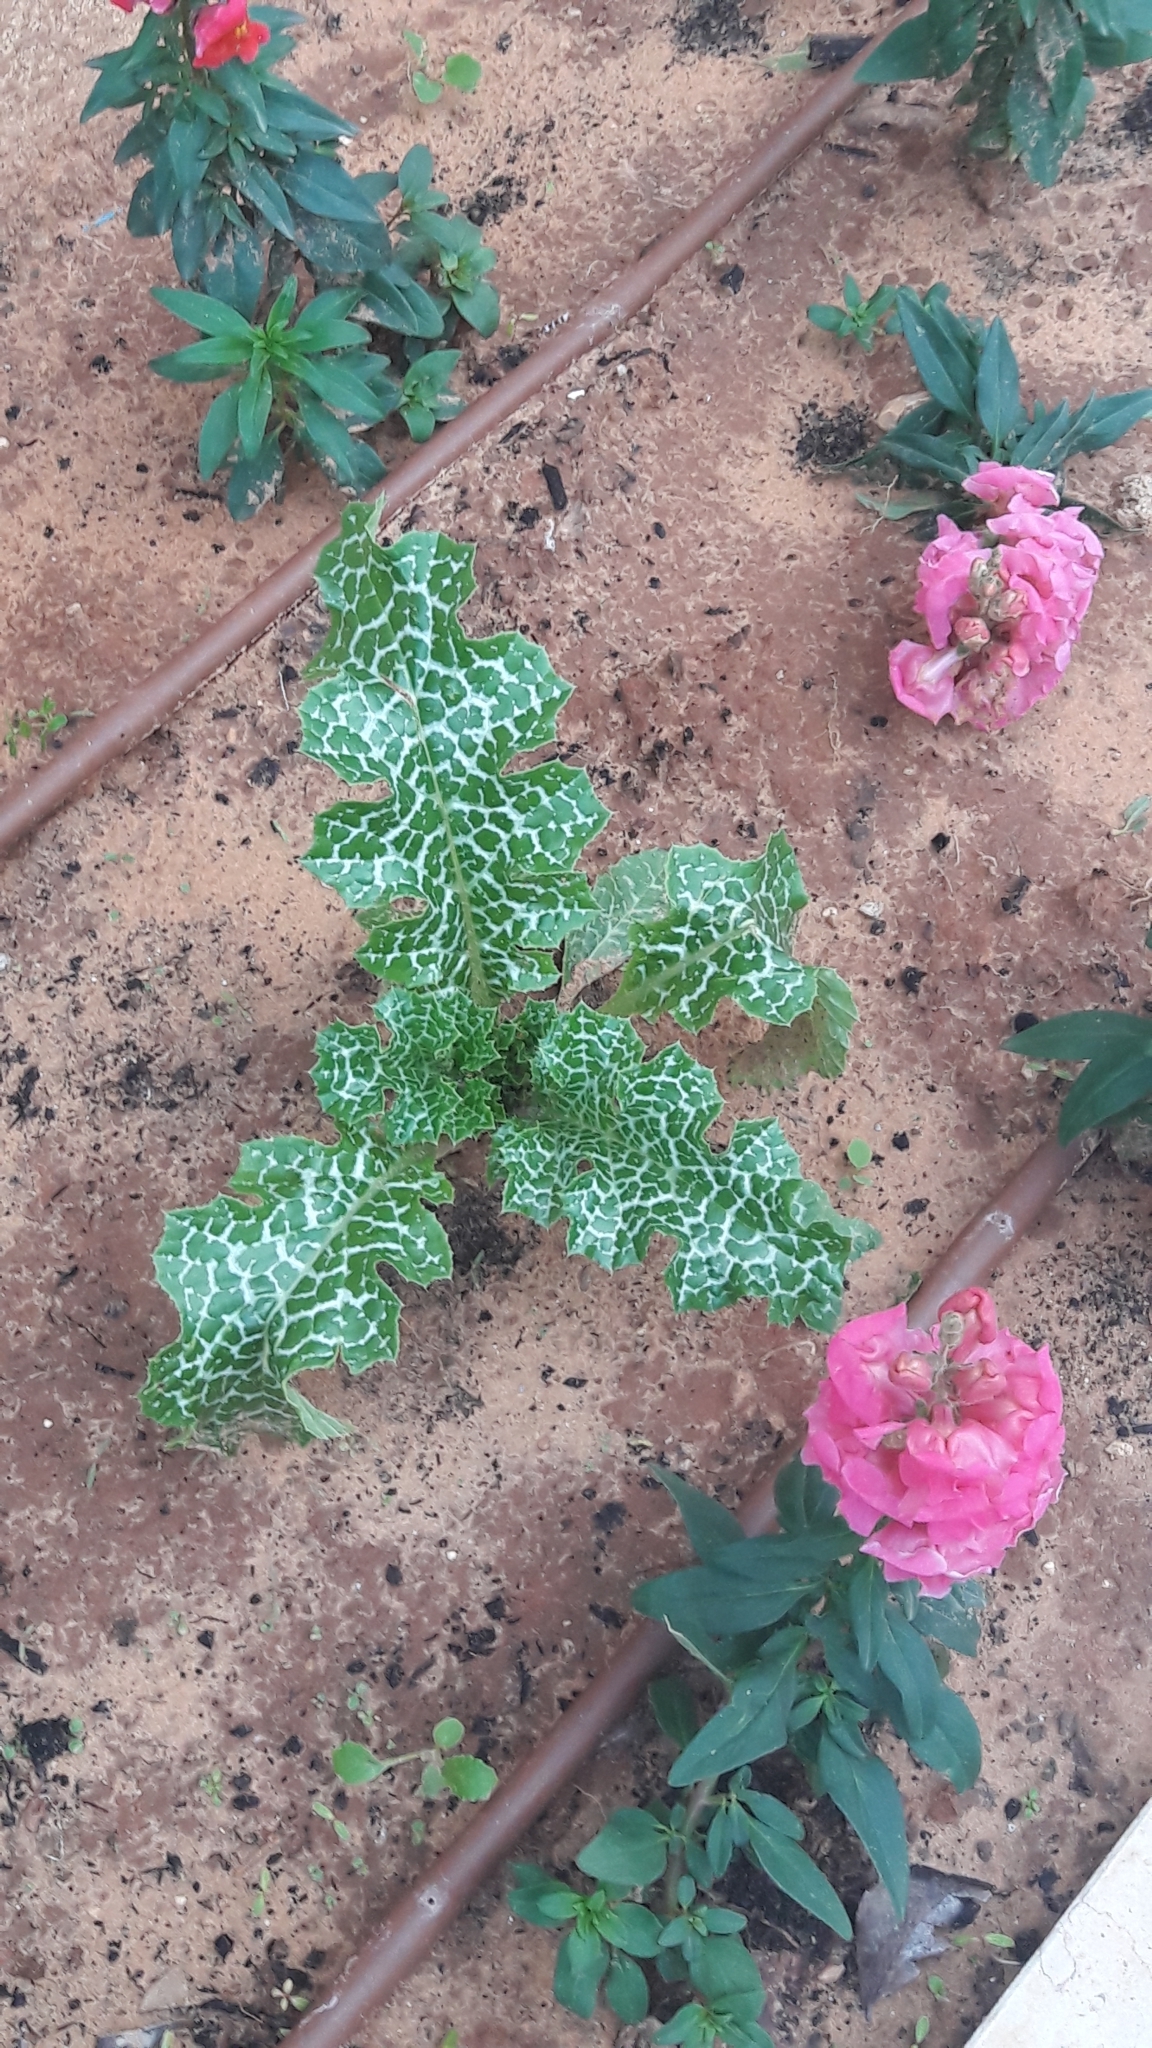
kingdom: Plantae
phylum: Tracheophyta
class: Magnoliopsida
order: Asterales
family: Asteraceae
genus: Silybum
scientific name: Silybum marianum
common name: Milk thistle
